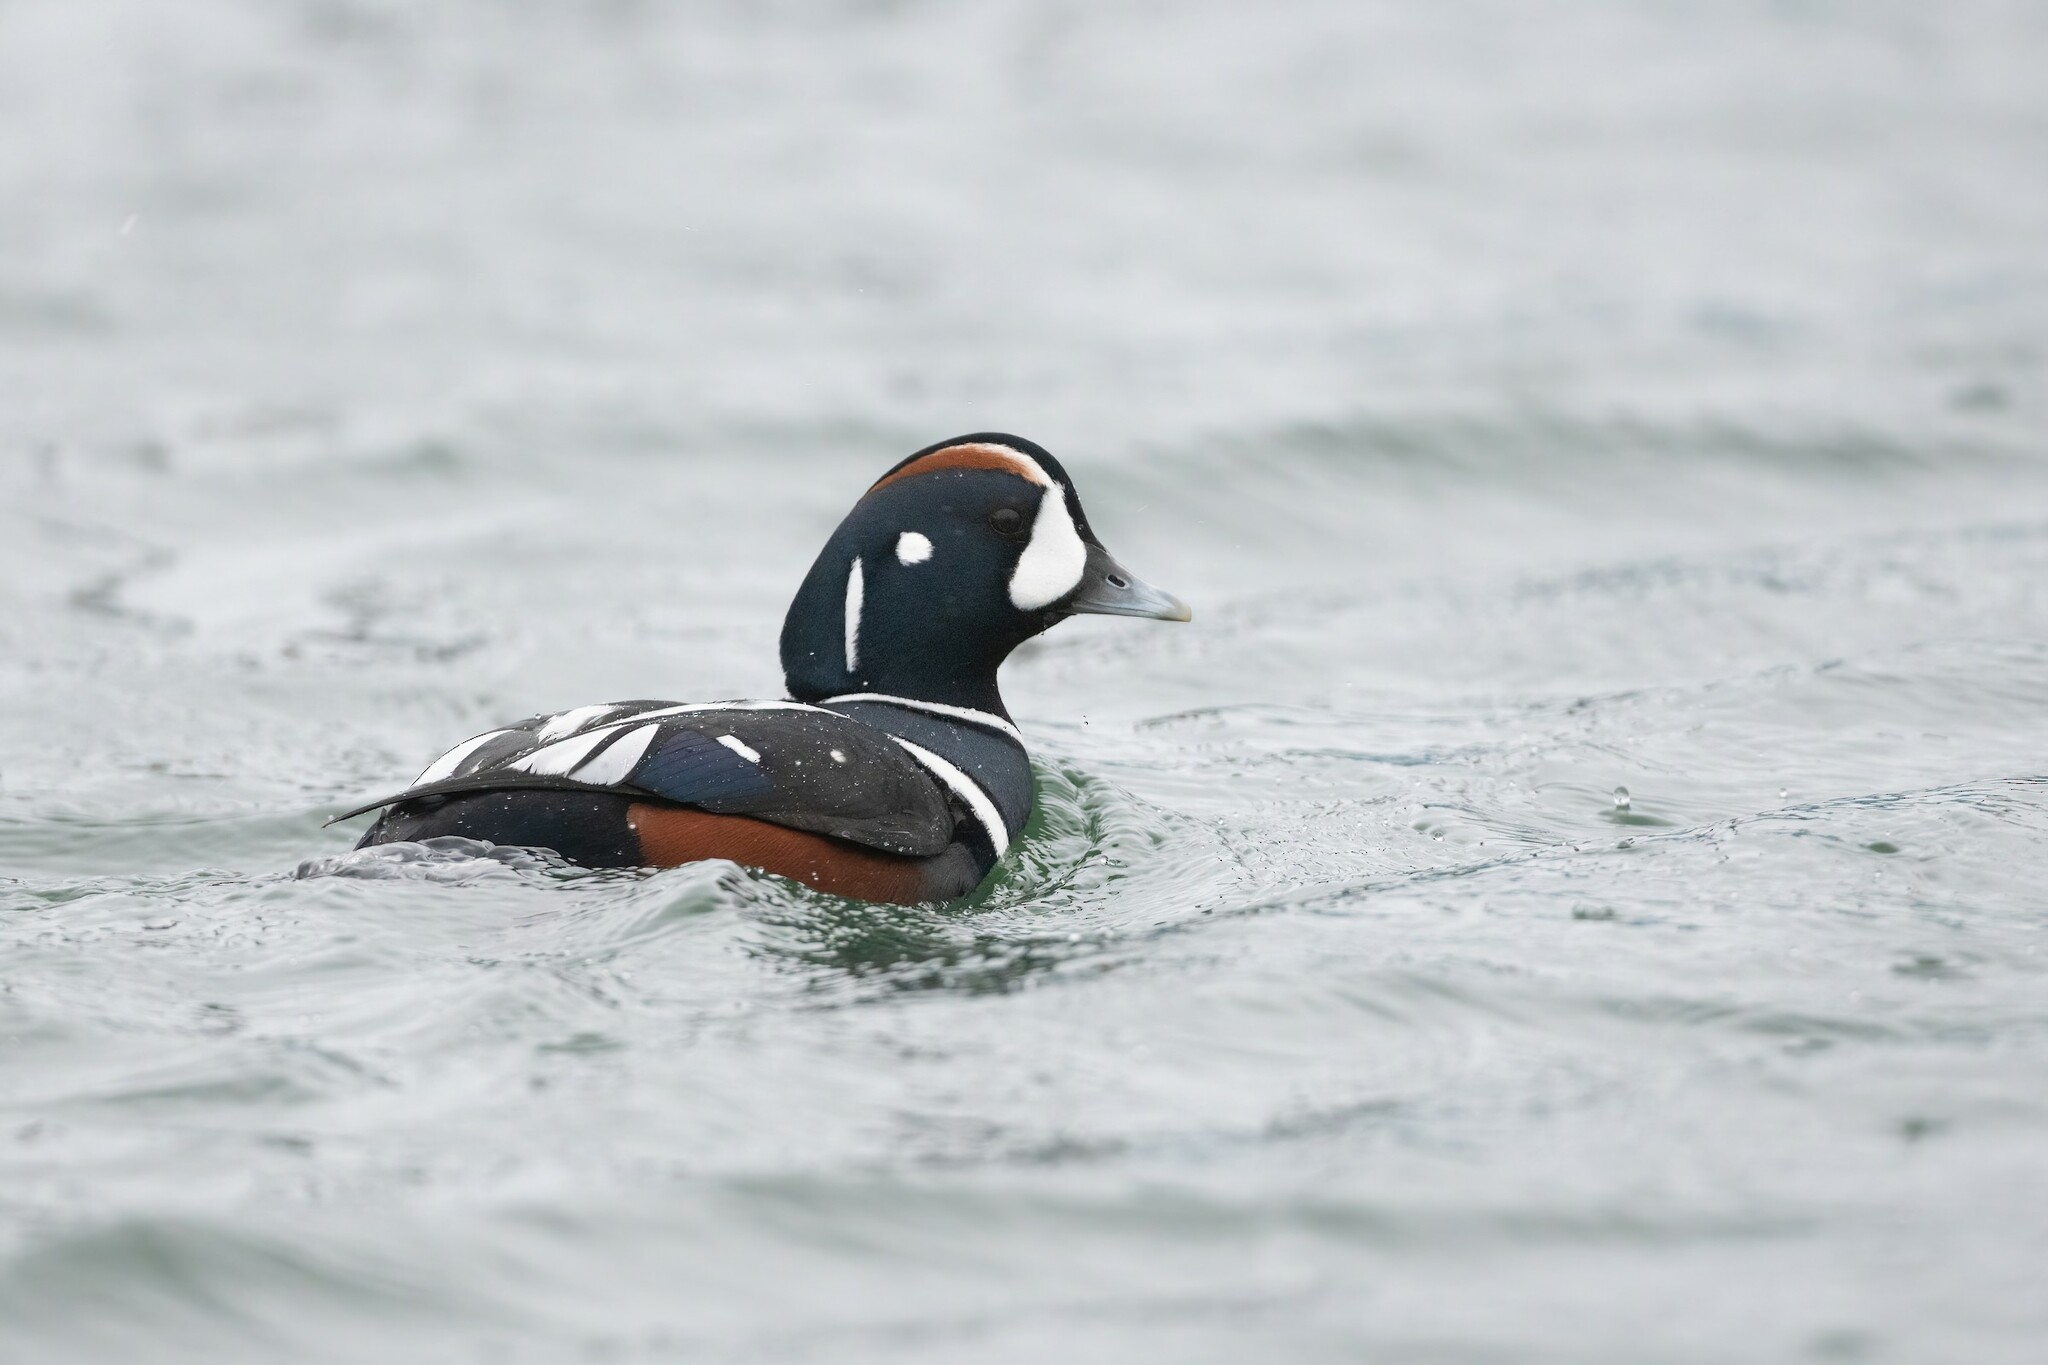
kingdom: Animalia
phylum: Chordata
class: Aves
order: Anseriformes
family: Anatidae
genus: Histrionicus
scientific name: Histrionicus histrionicus
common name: Harlequin duck
